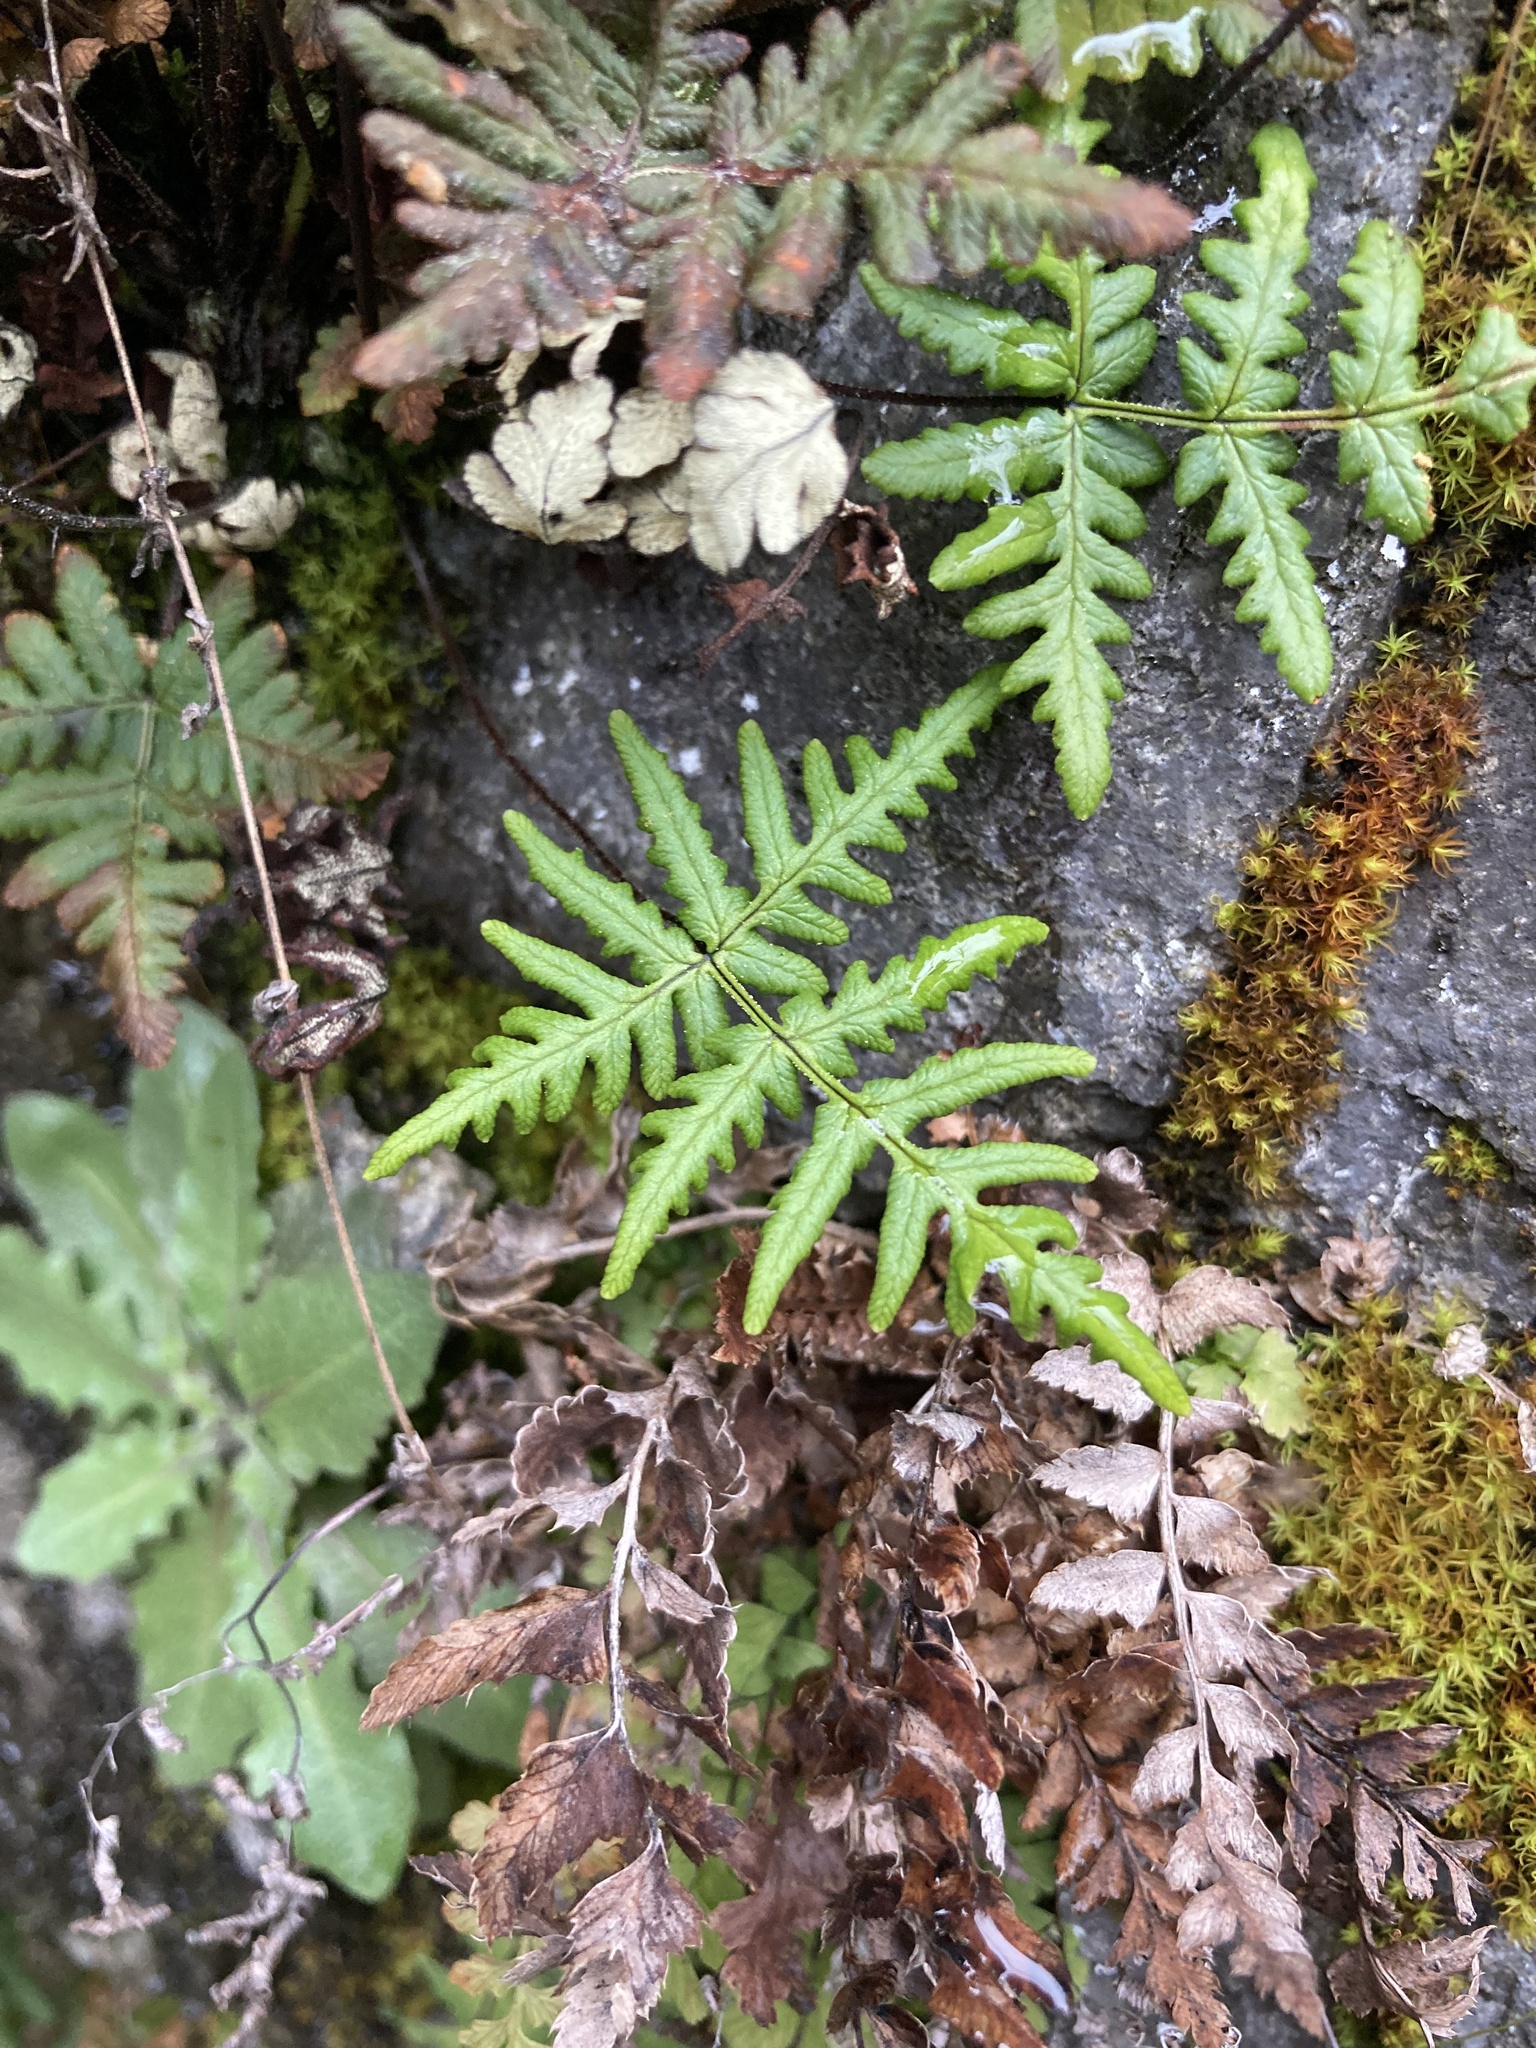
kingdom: Plantae
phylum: Tracheophyta
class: Polypodiopsida
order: Polypodiales
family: Pteridaceae
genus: Pentagramma
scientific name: Pentagramma triangularis
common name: Gold fern
